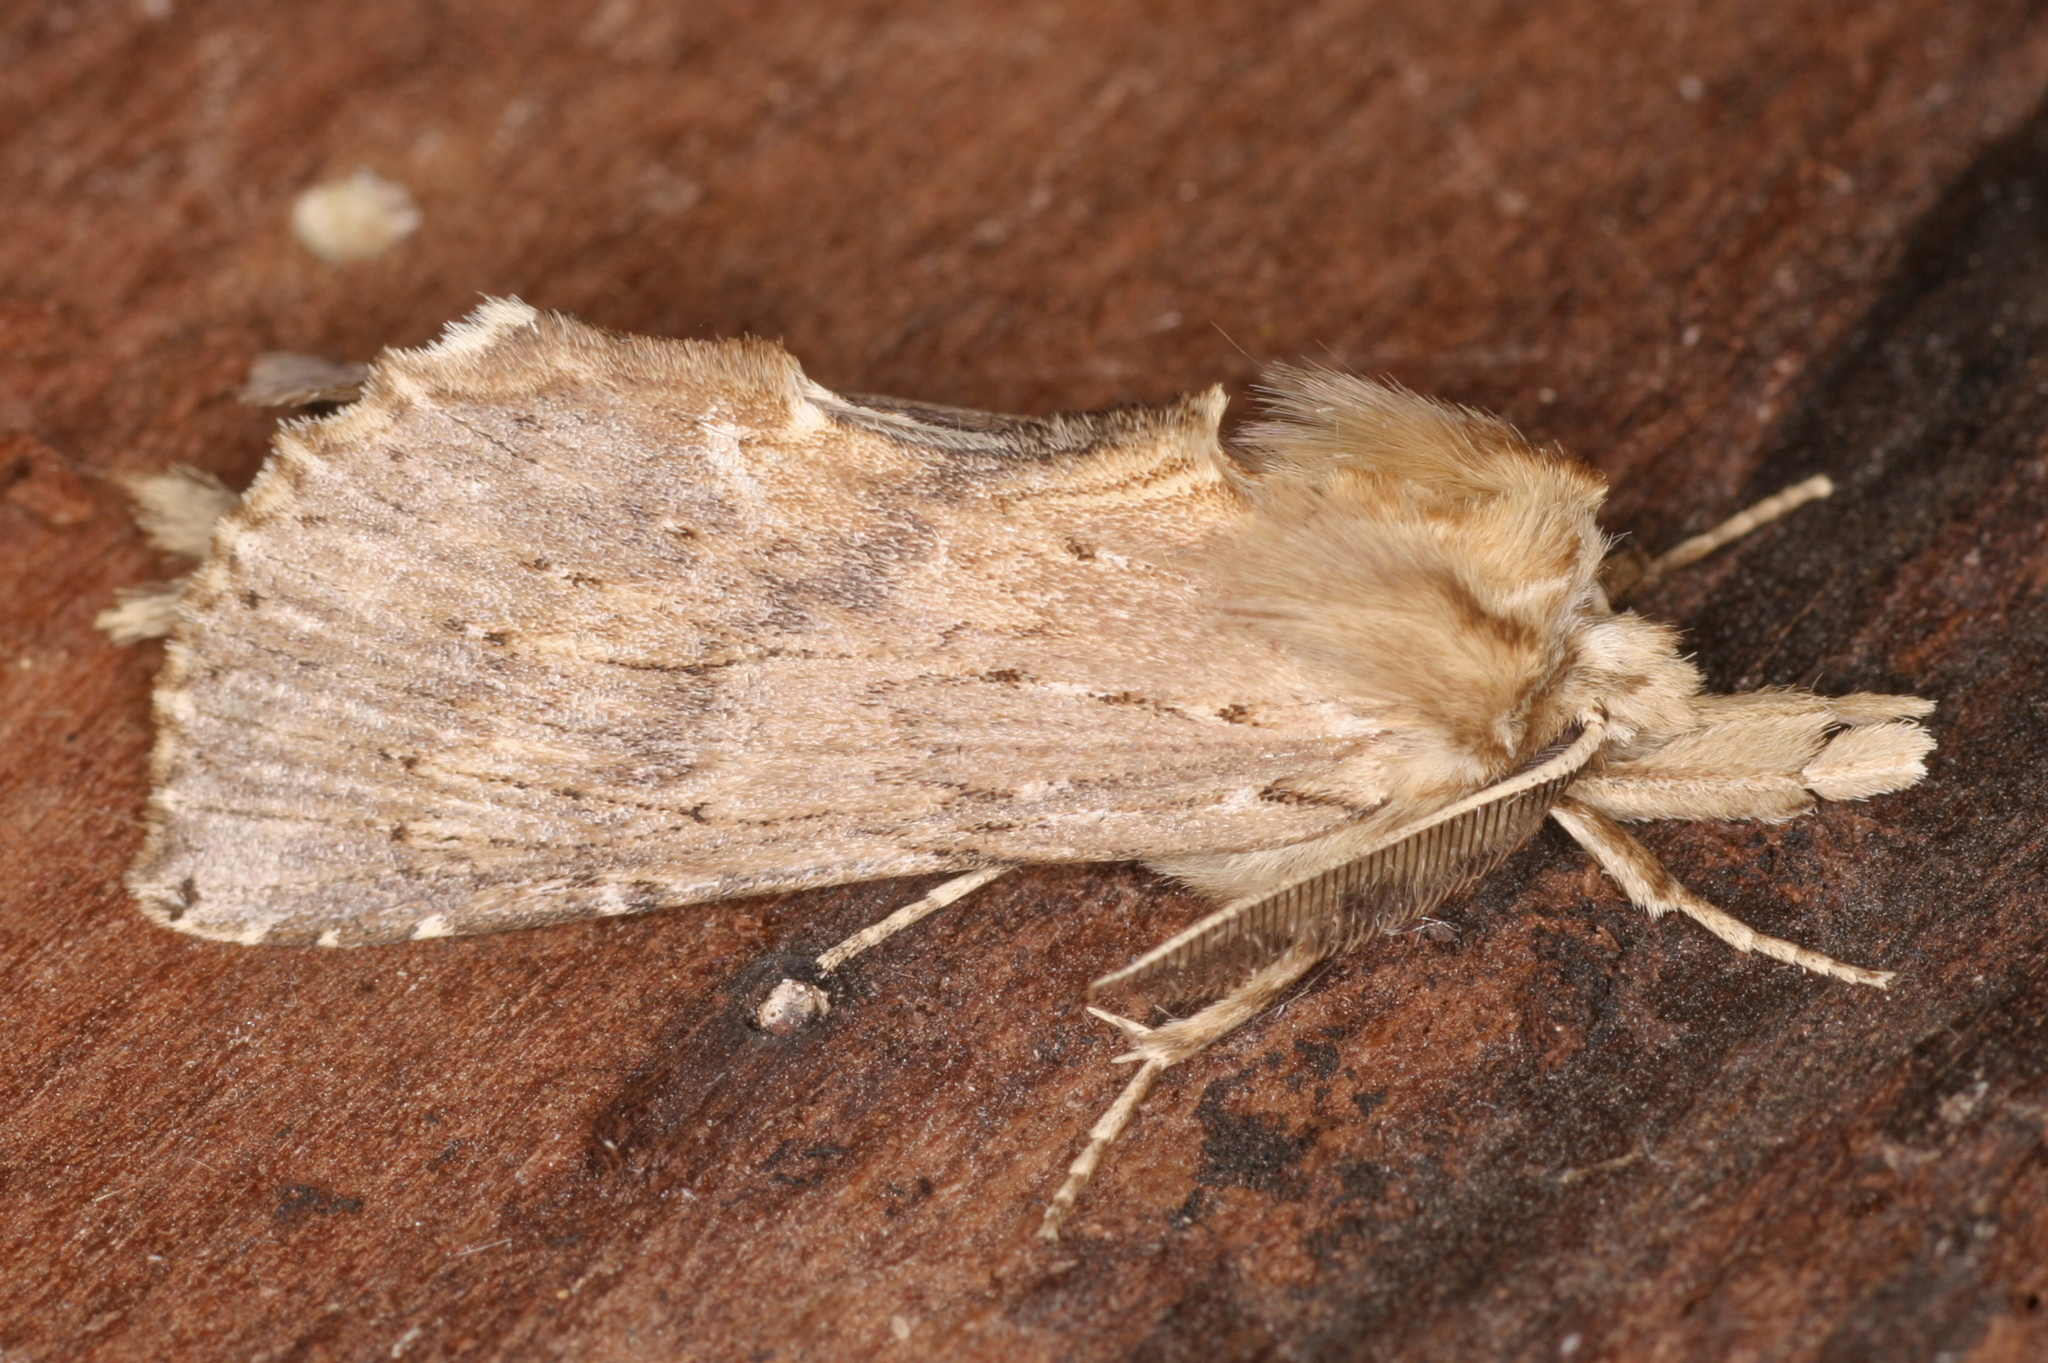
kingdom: Animalia
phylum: Arthropoda
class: Insecta
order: Lepidoptera
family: Notodontidae
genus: Pterostoma
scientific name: Pterostoma palpina
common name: Pale prominent
